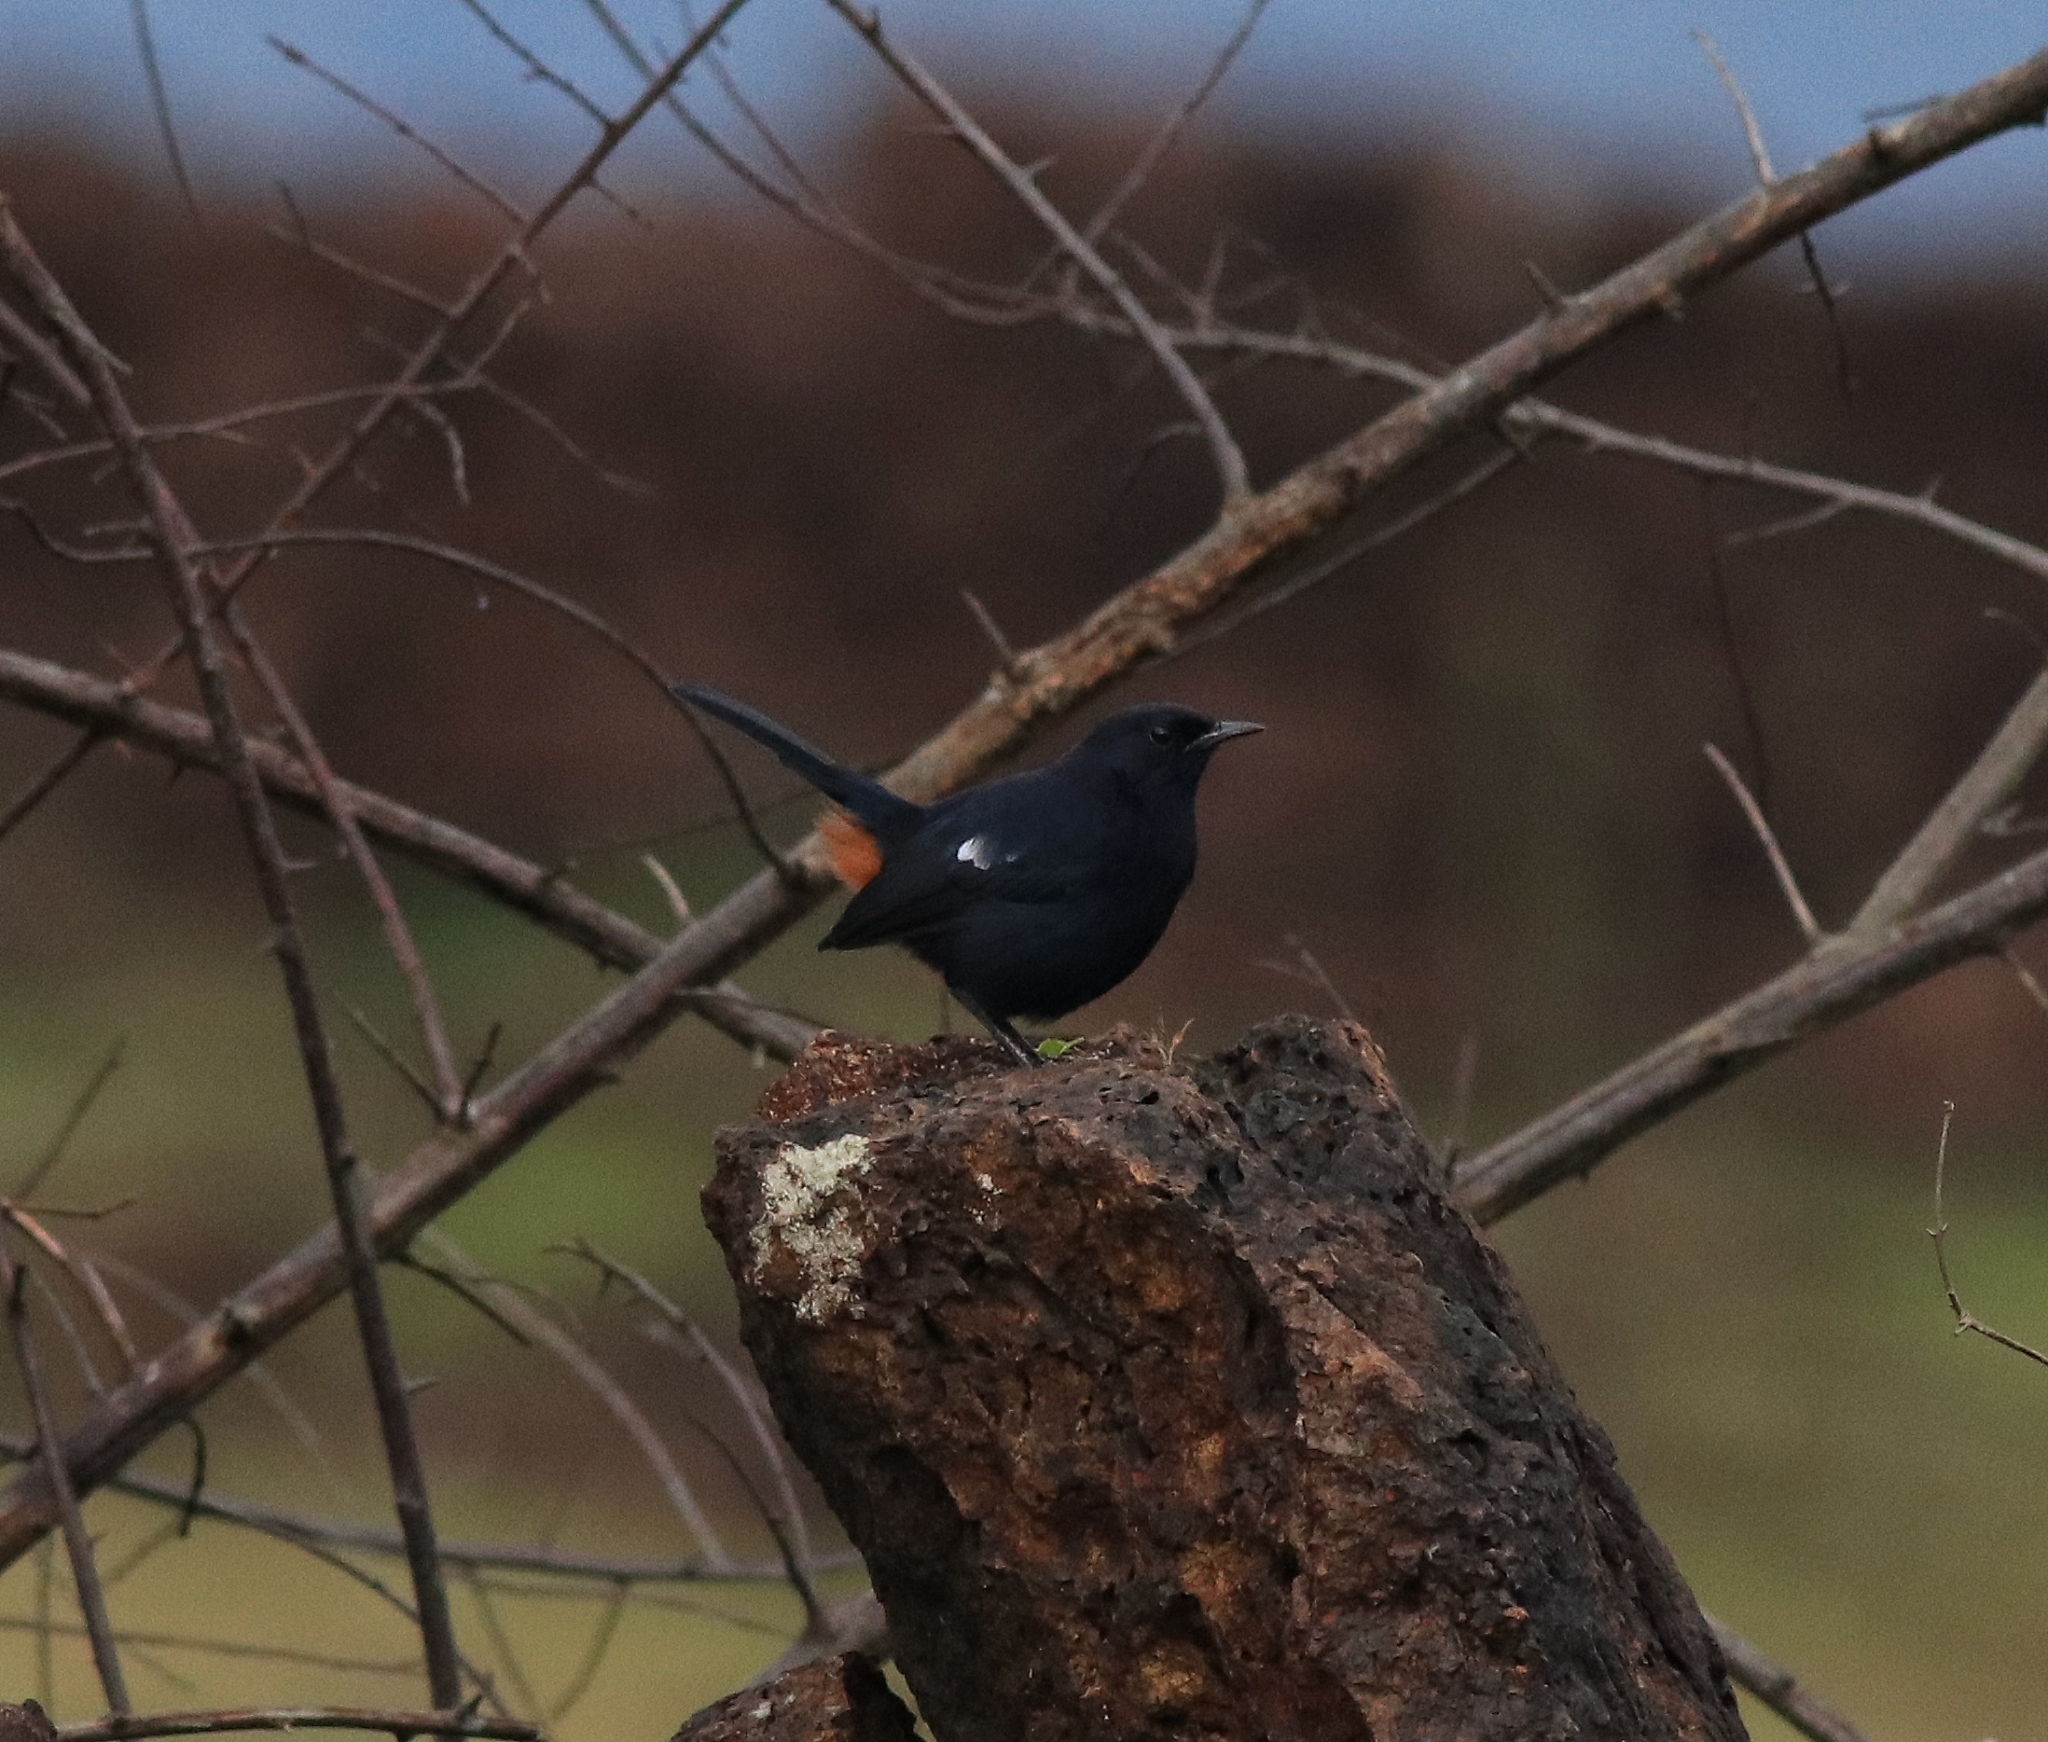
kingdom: Animalia
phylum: Chordata
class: Aves
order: Passeriformes
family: Muscicapidae
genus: Saxicoloides
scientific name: Saxicoloides fulicatus
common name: Indian robin
